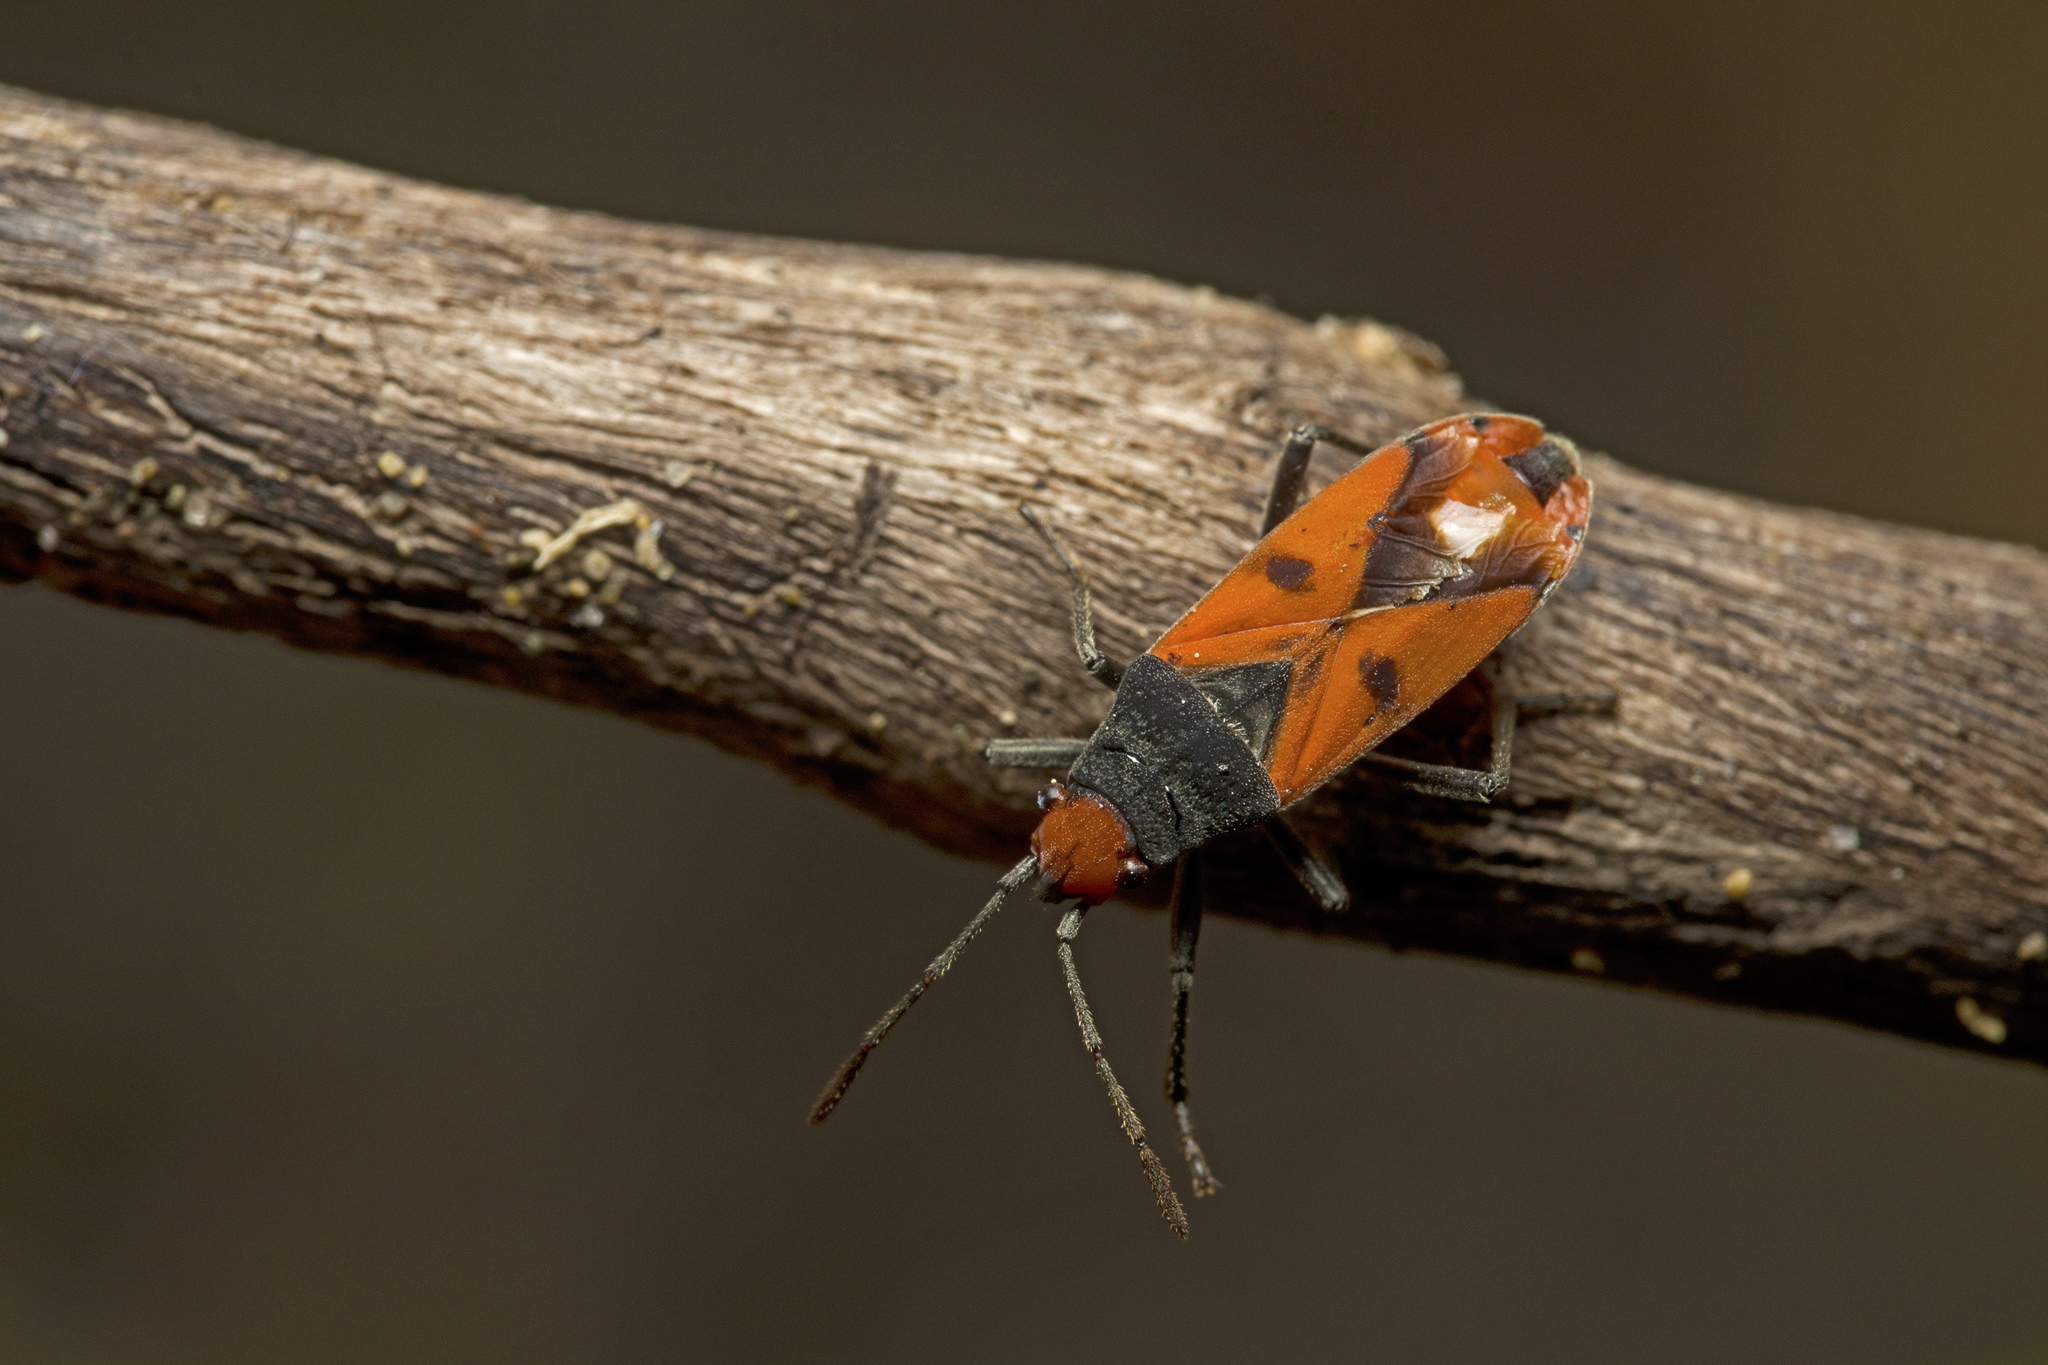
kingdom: Animalia
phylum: Arthropoda
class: Insecta
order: Hemiptera
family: Lygaeidae
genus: Melanerythrus
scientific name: Melanerythrus biguttatus
